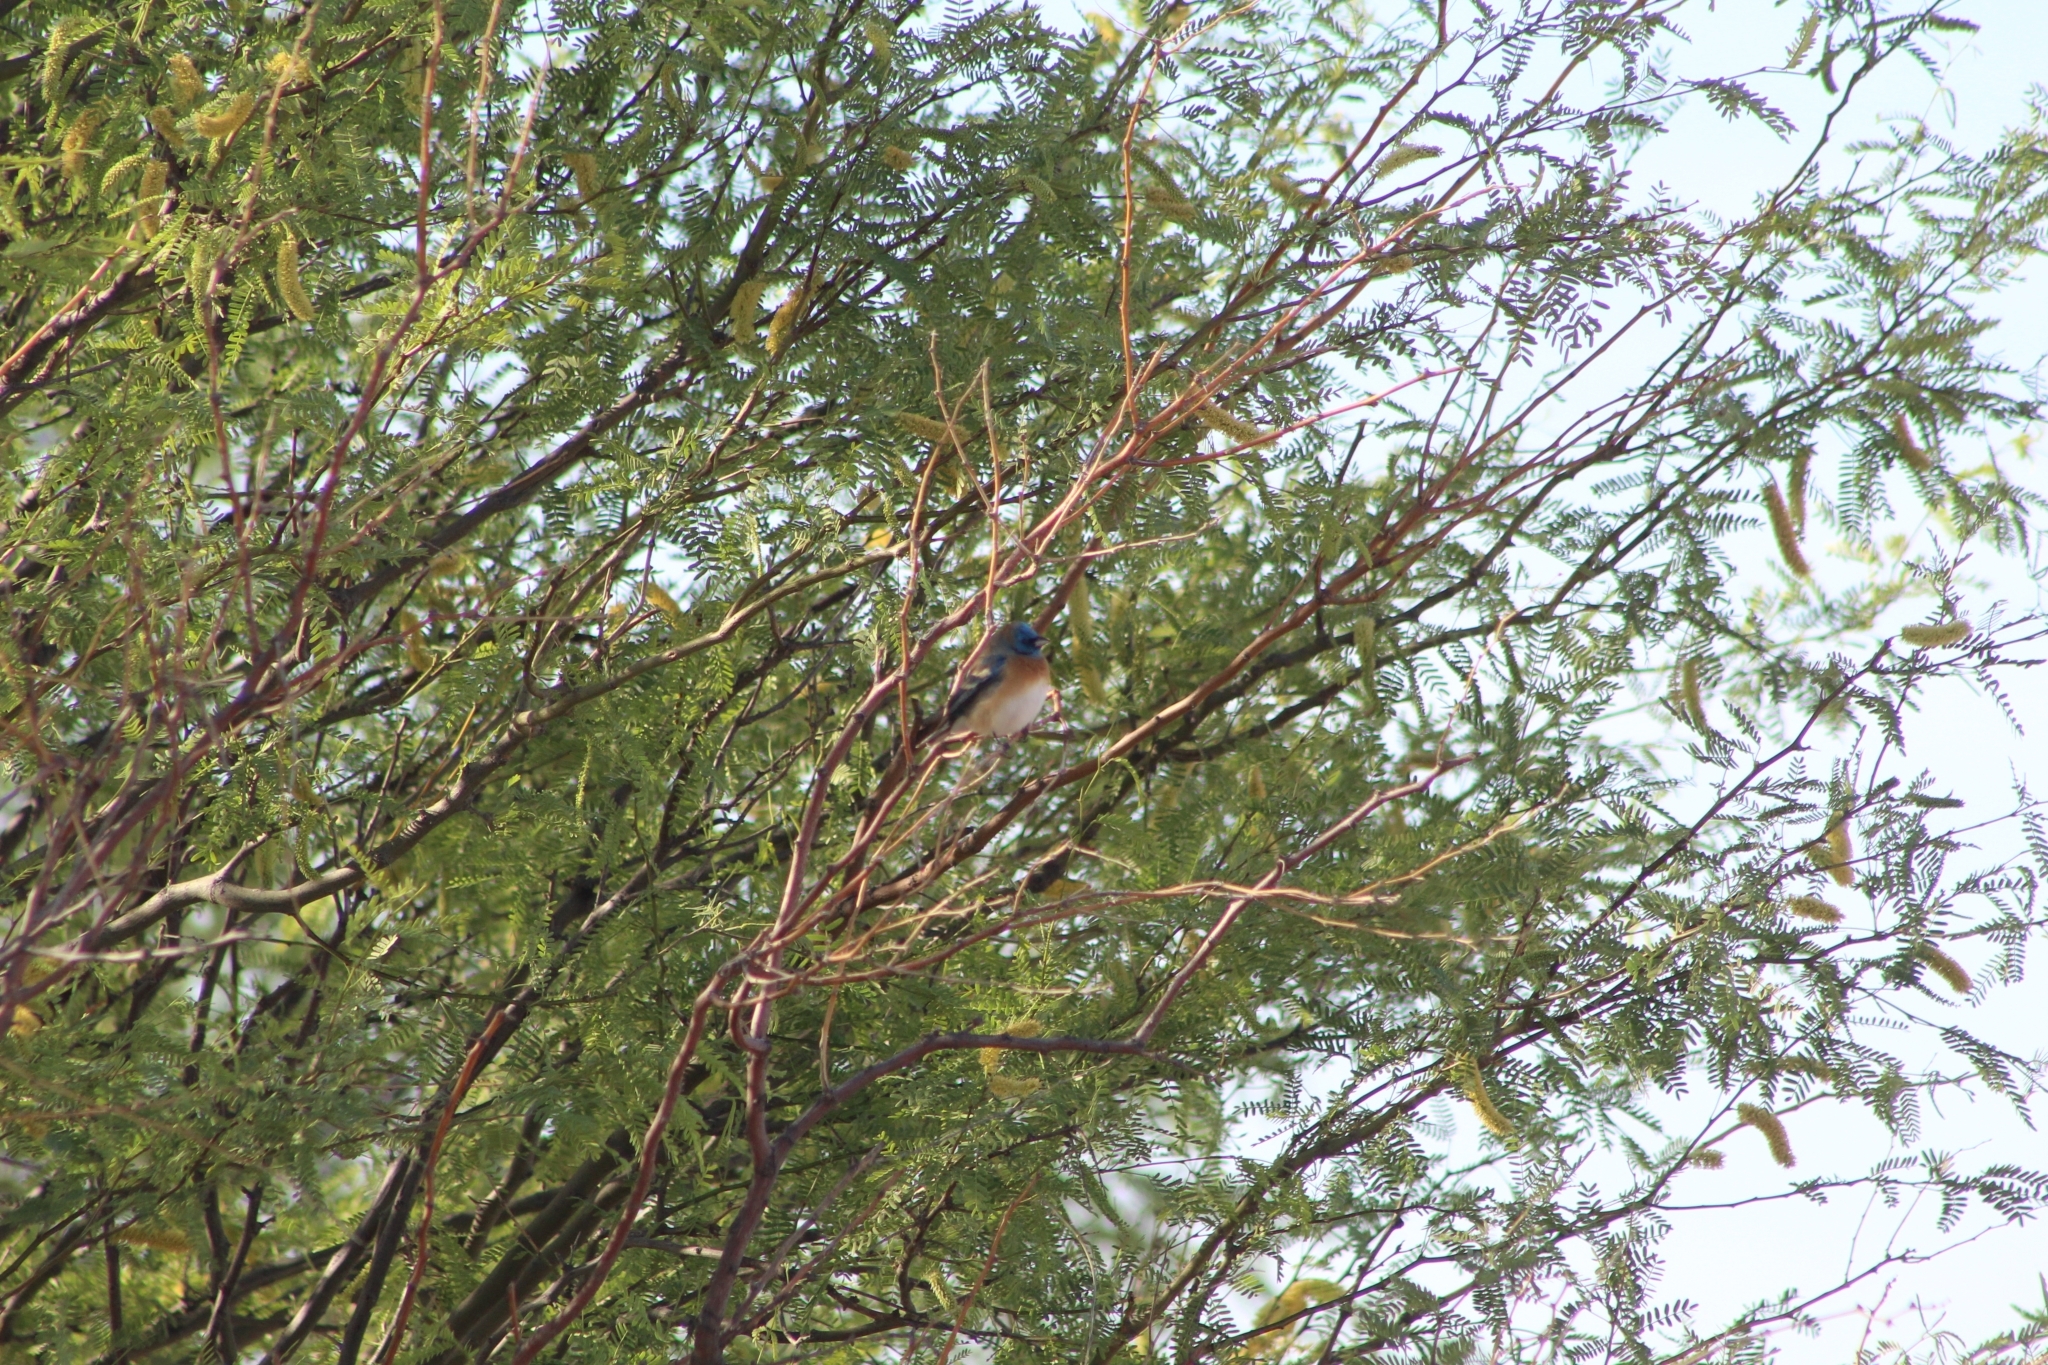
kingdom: Animalia
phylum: Chordata
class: Aves
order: Passeriformes
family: Cardinalidae
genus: Passerina
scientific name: Passerina amoena
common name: Lazuli bunting
